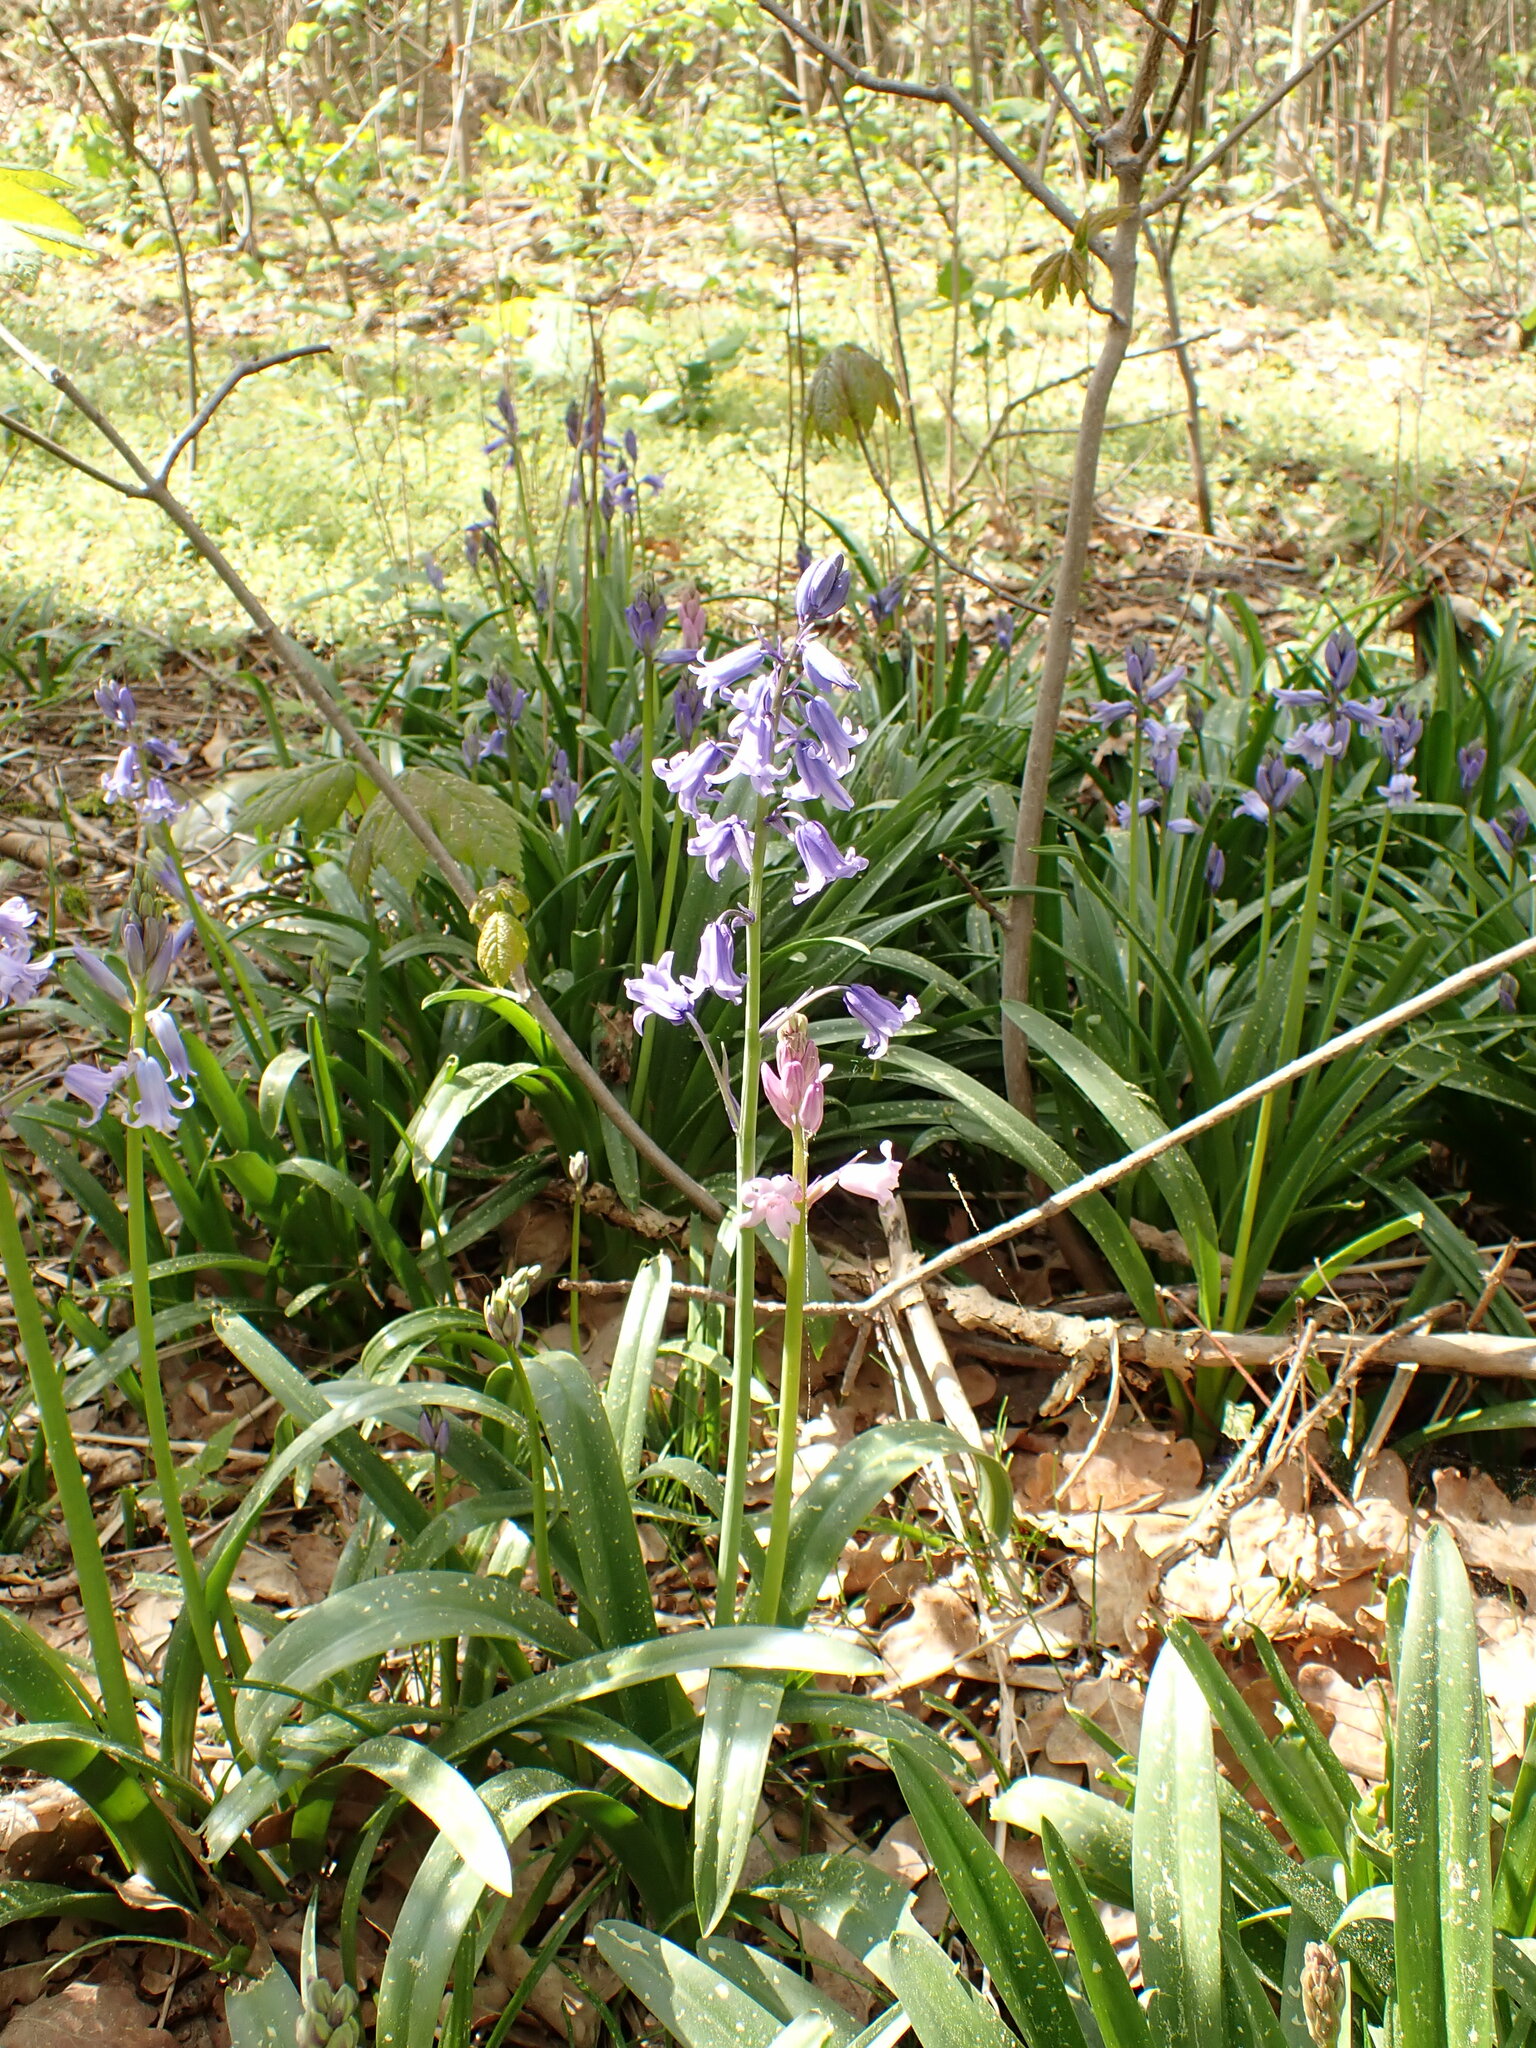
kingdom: Plantae
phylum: Tracheophyta
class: Liliopsida
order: Asparagales
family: Asparagaceae
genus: Hyacinthoides
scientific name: Hyacinthoides massartiana
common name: Hyacinthoides
